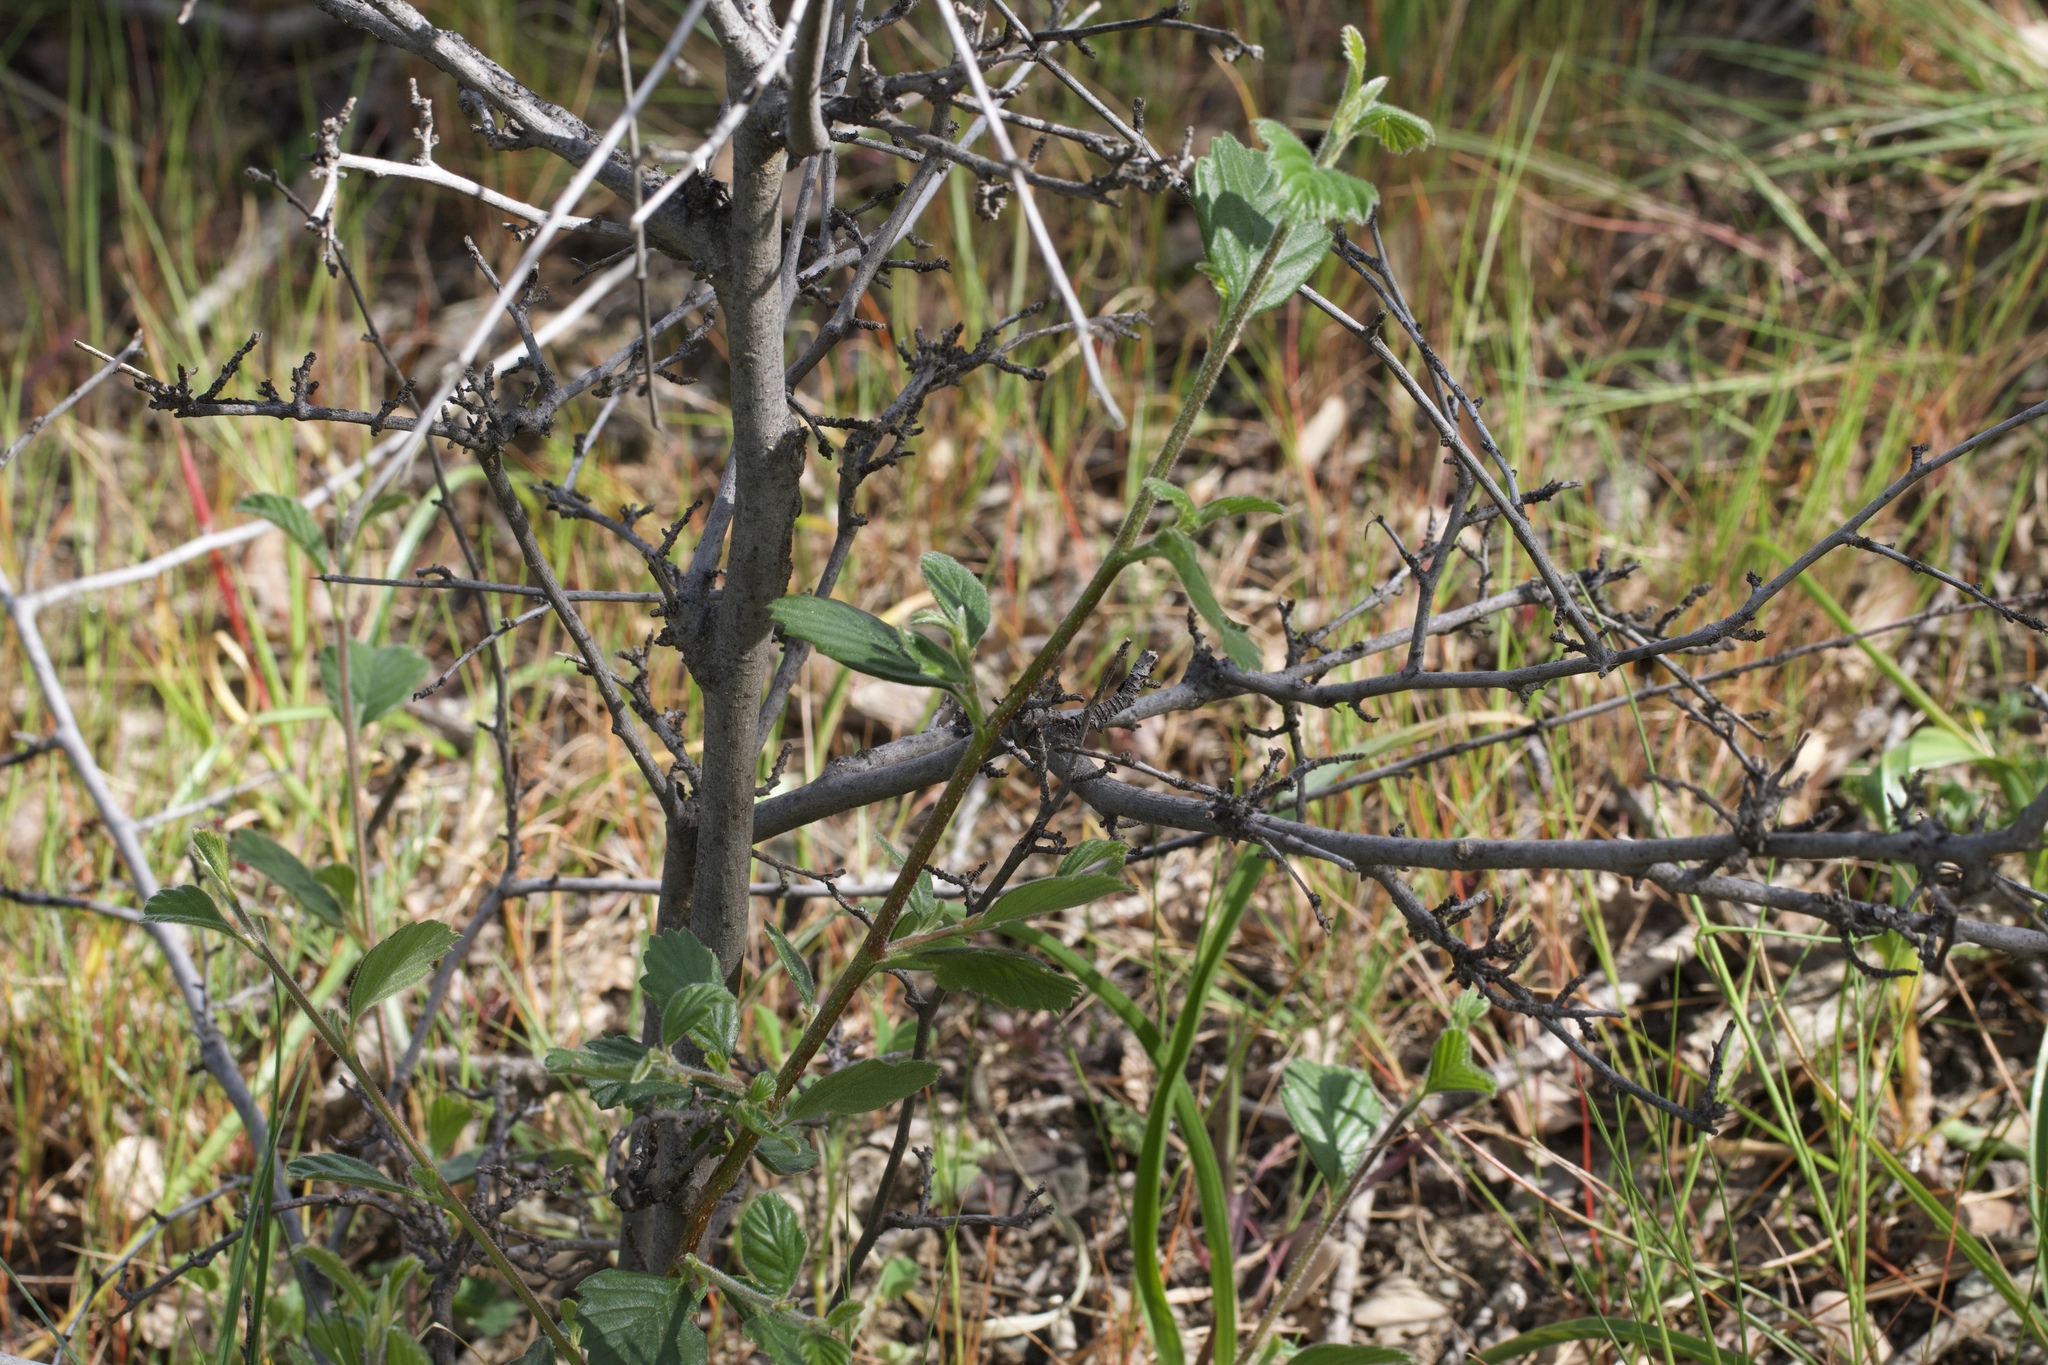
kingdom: Plantae
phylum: Tracheophyta
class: Magnoliopsida
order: Rosales
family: Rosaceae
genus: Cercocarpus
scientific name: Cercocarpus betuloides
